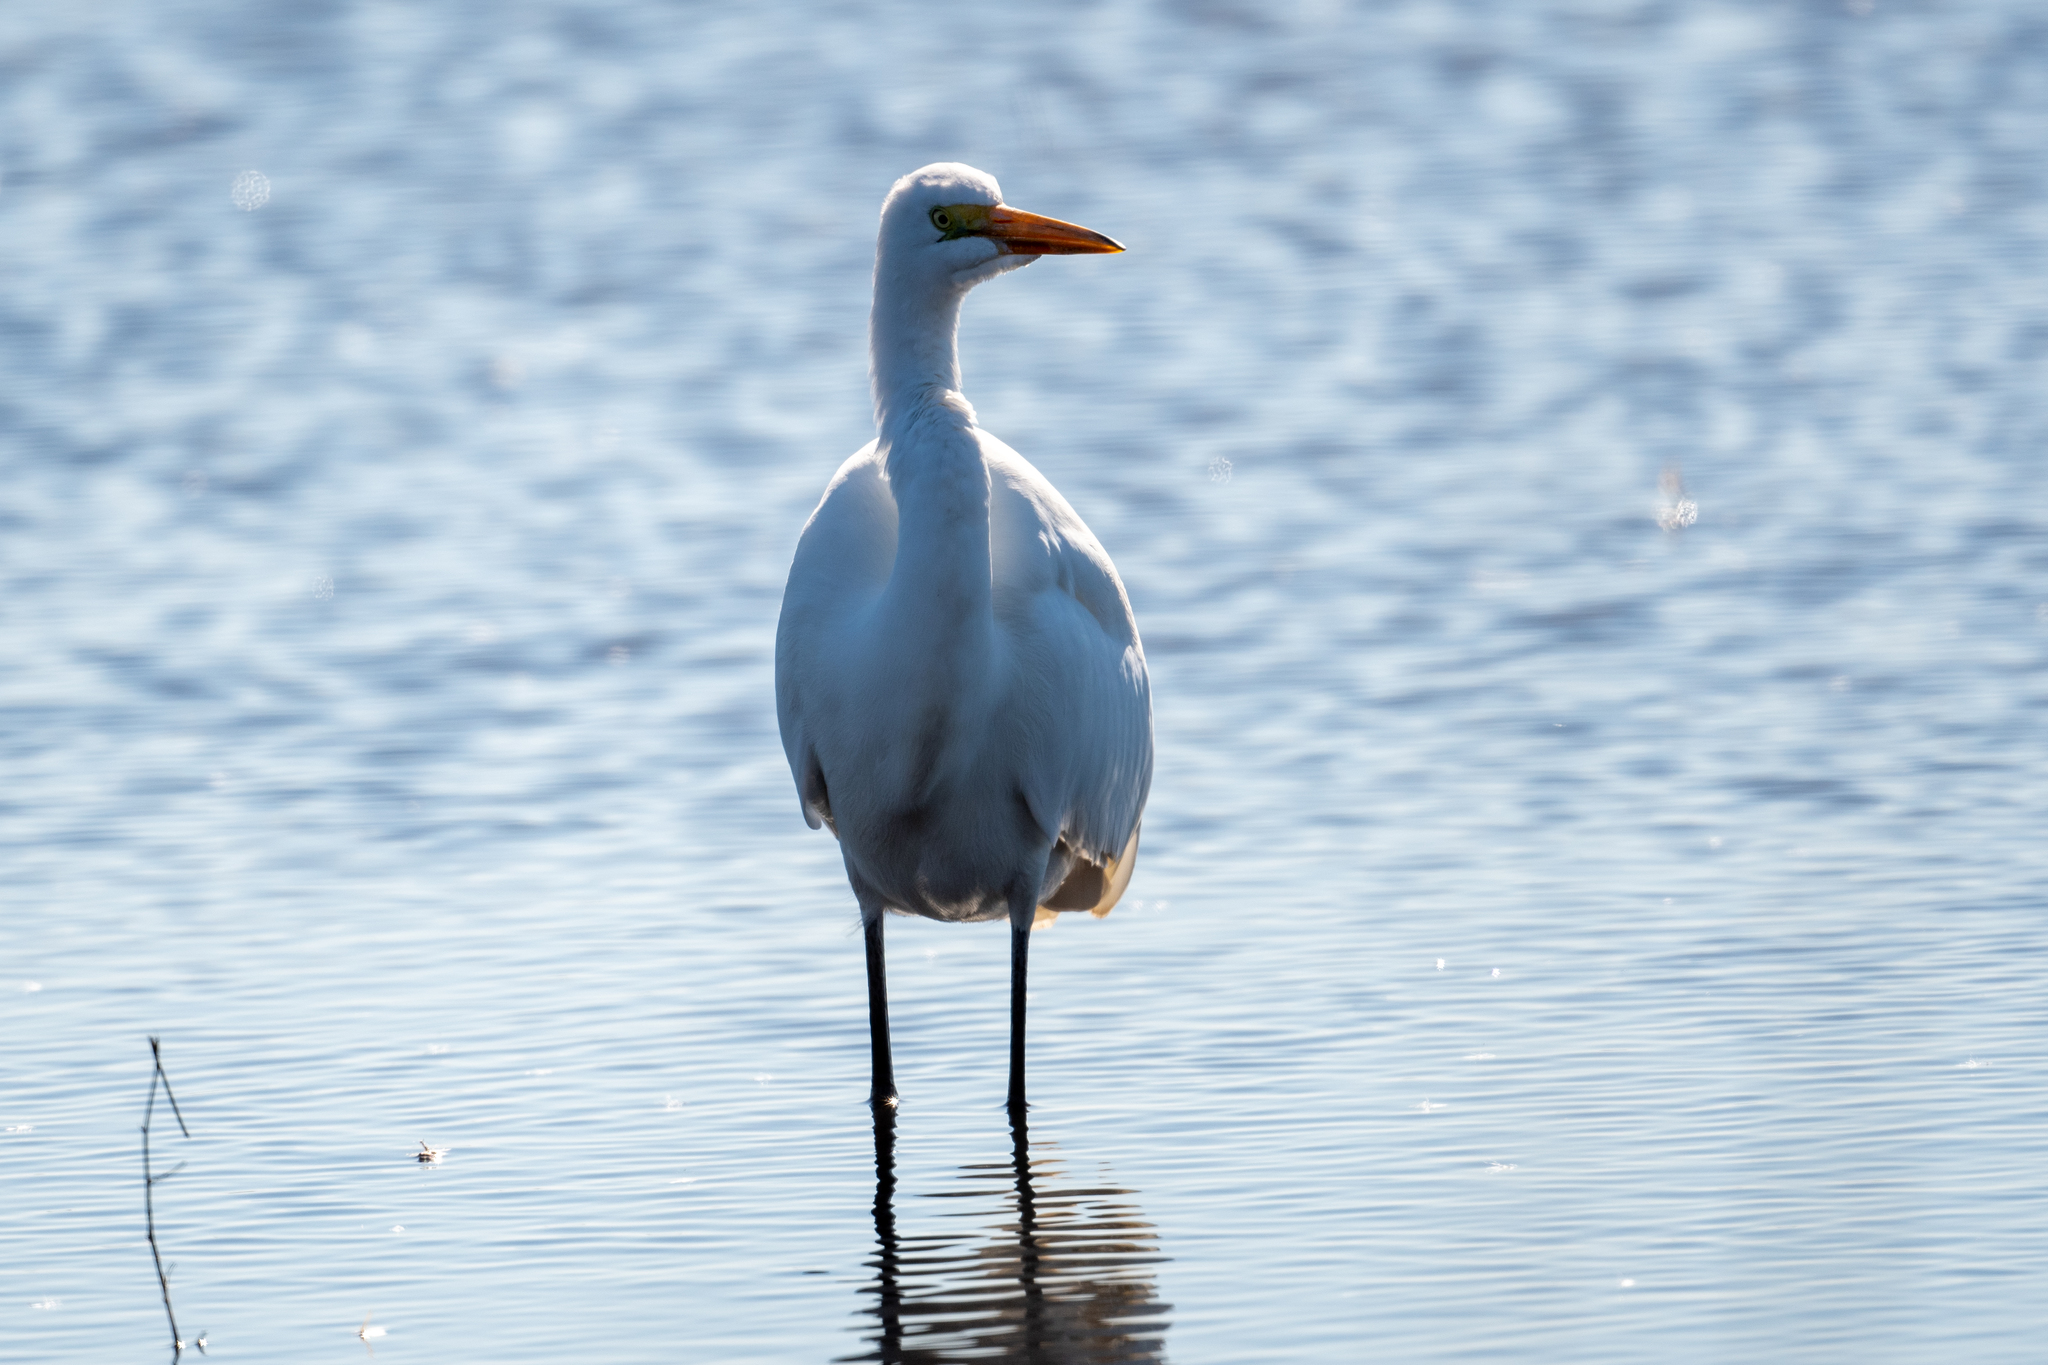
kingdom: Animalia
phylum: Chordata
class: Aves
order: Pelecaniformes
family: Ardeidae
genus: Ardea
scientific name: Ardea alba
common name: Great egret
